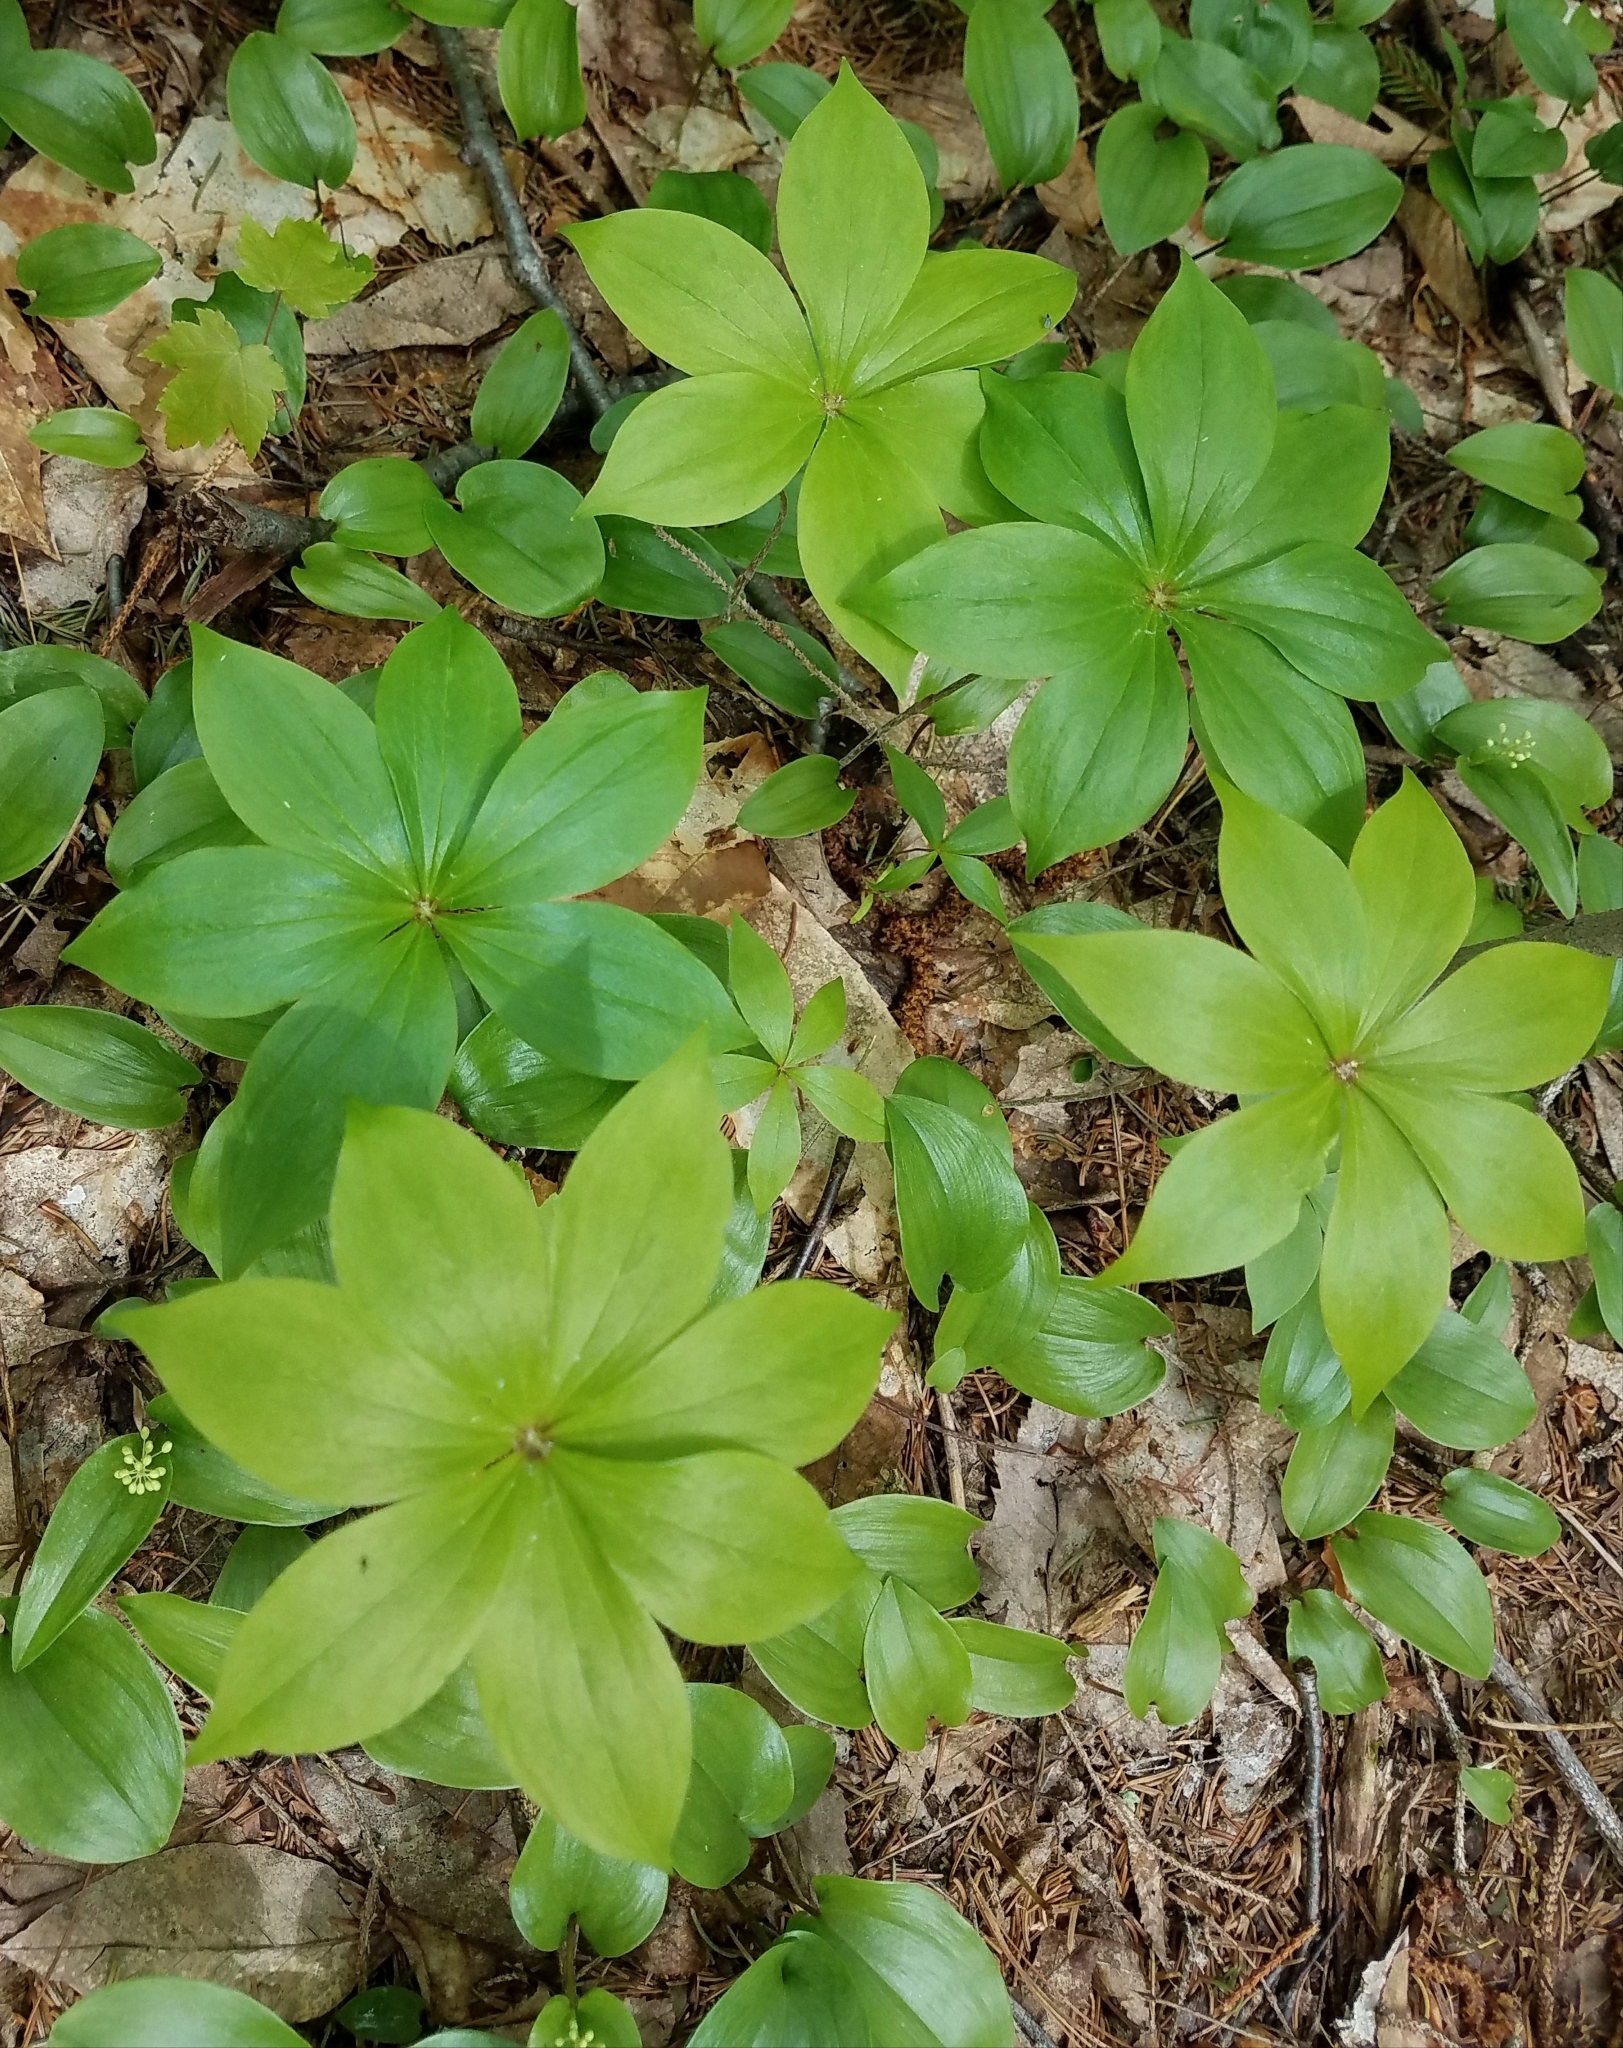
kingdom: Plantae
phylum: Tracheophyta
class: Magnoliopsida
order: Cornales
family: Cornaceae
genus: Cornus
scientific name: Cornus canadensis
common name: Creeping dogwood
